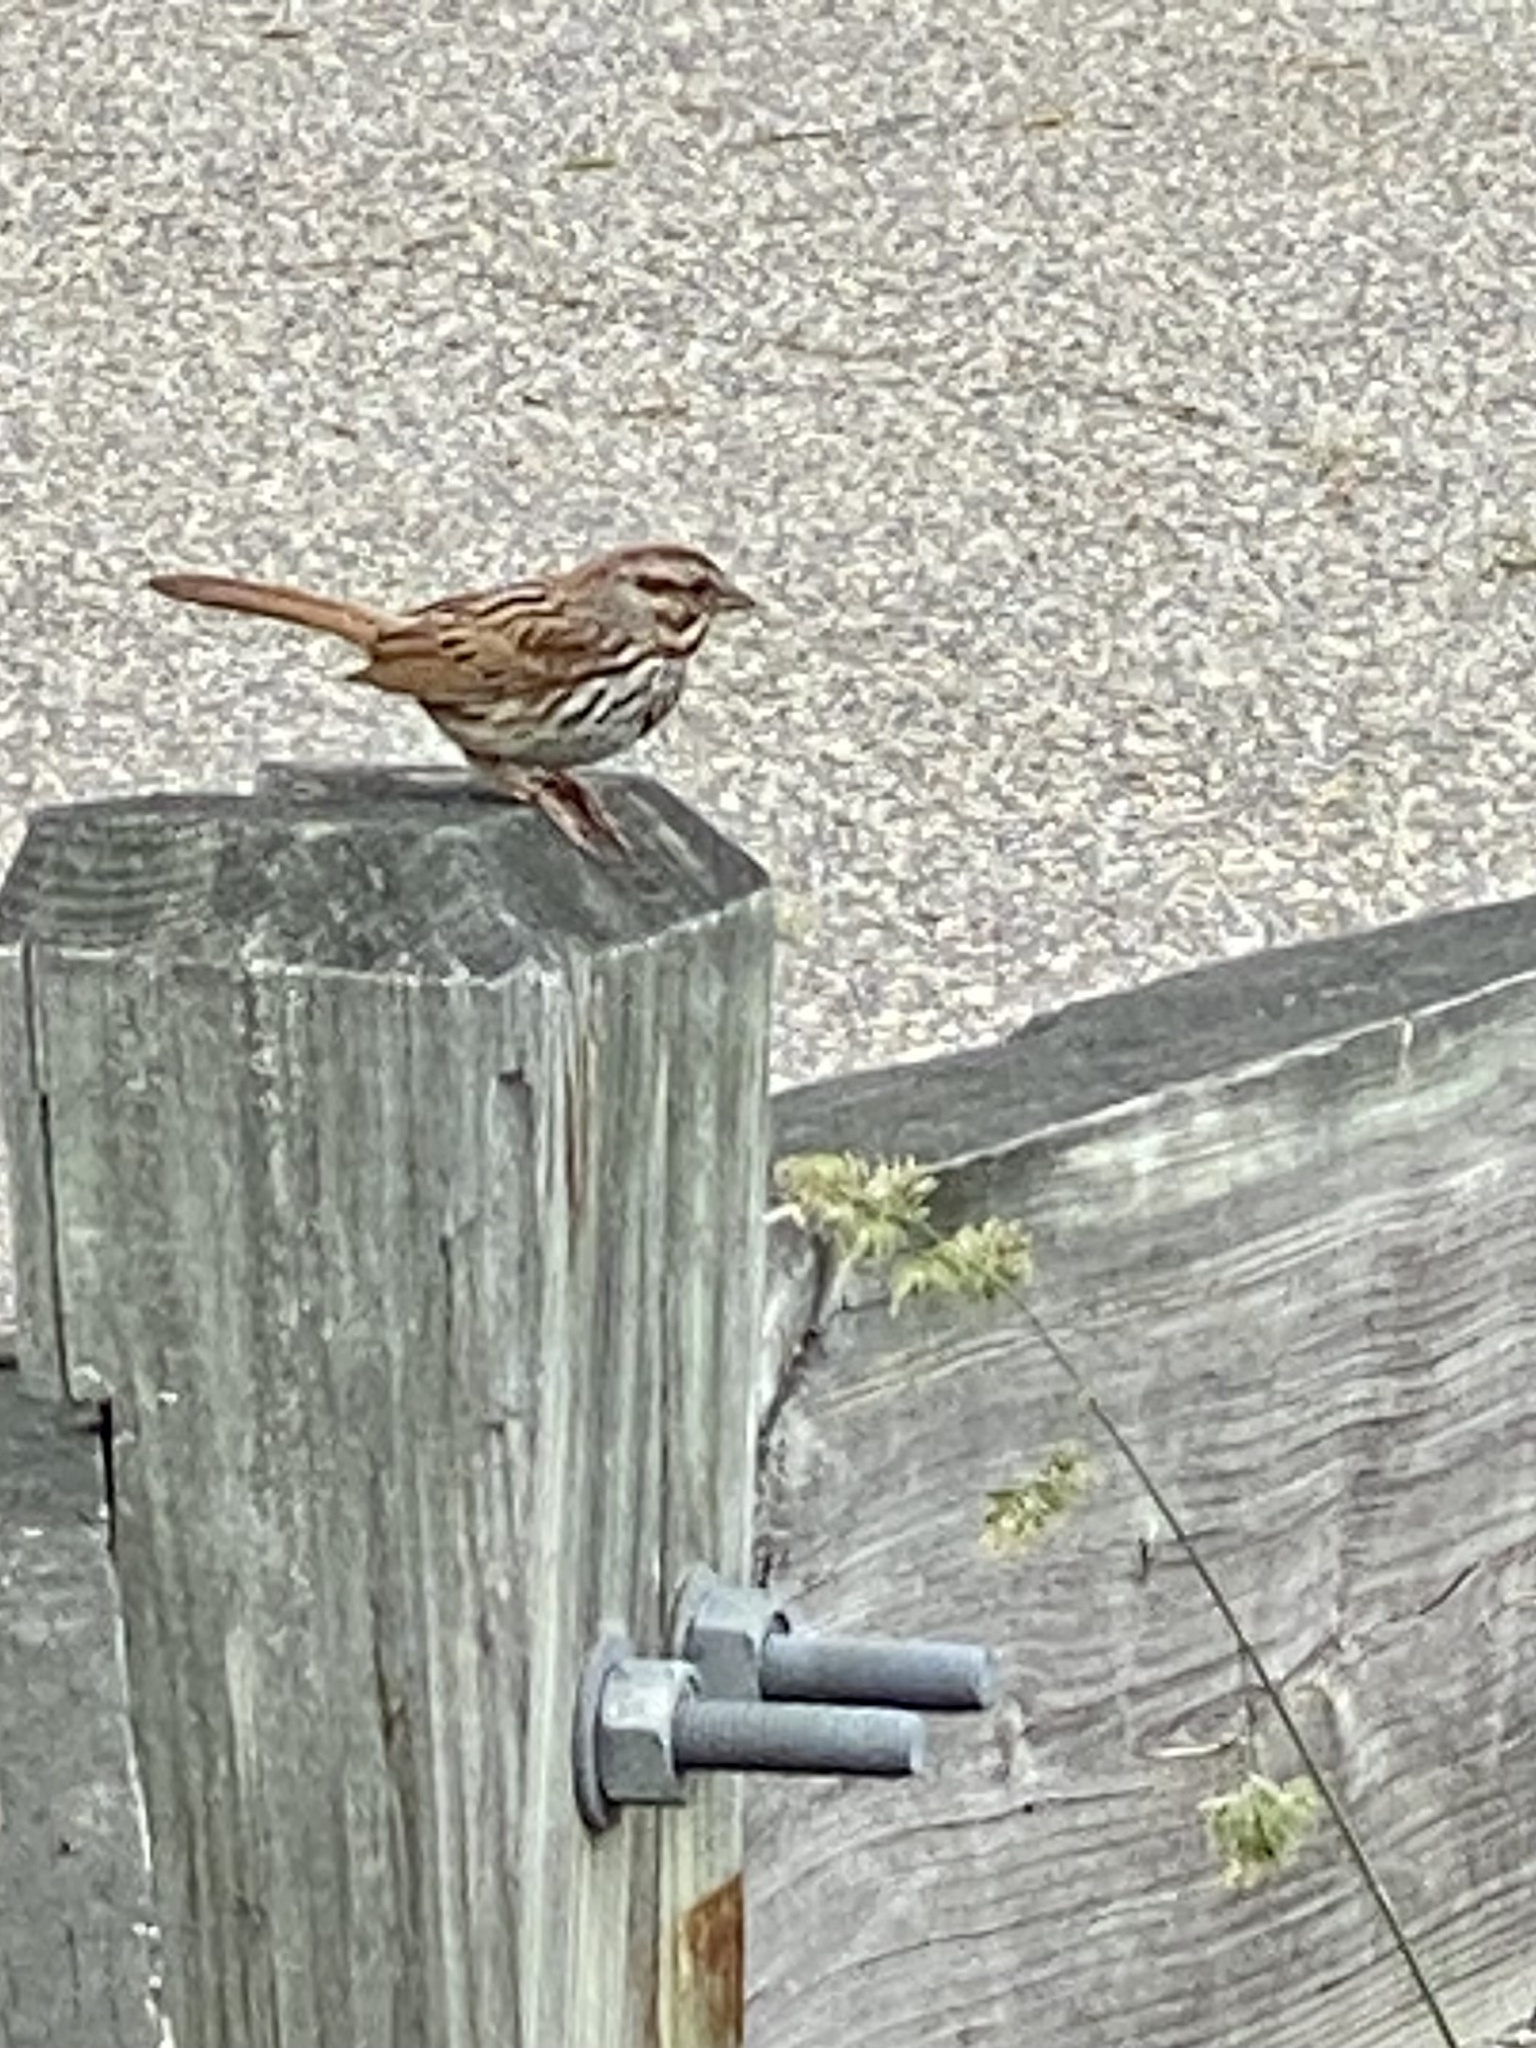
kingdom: Animalia
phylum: Chordata
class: Aves
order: Passeriformes
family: Passerellidae
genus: Melospiza
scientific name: Melospiza melodia
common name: Song sparrow
